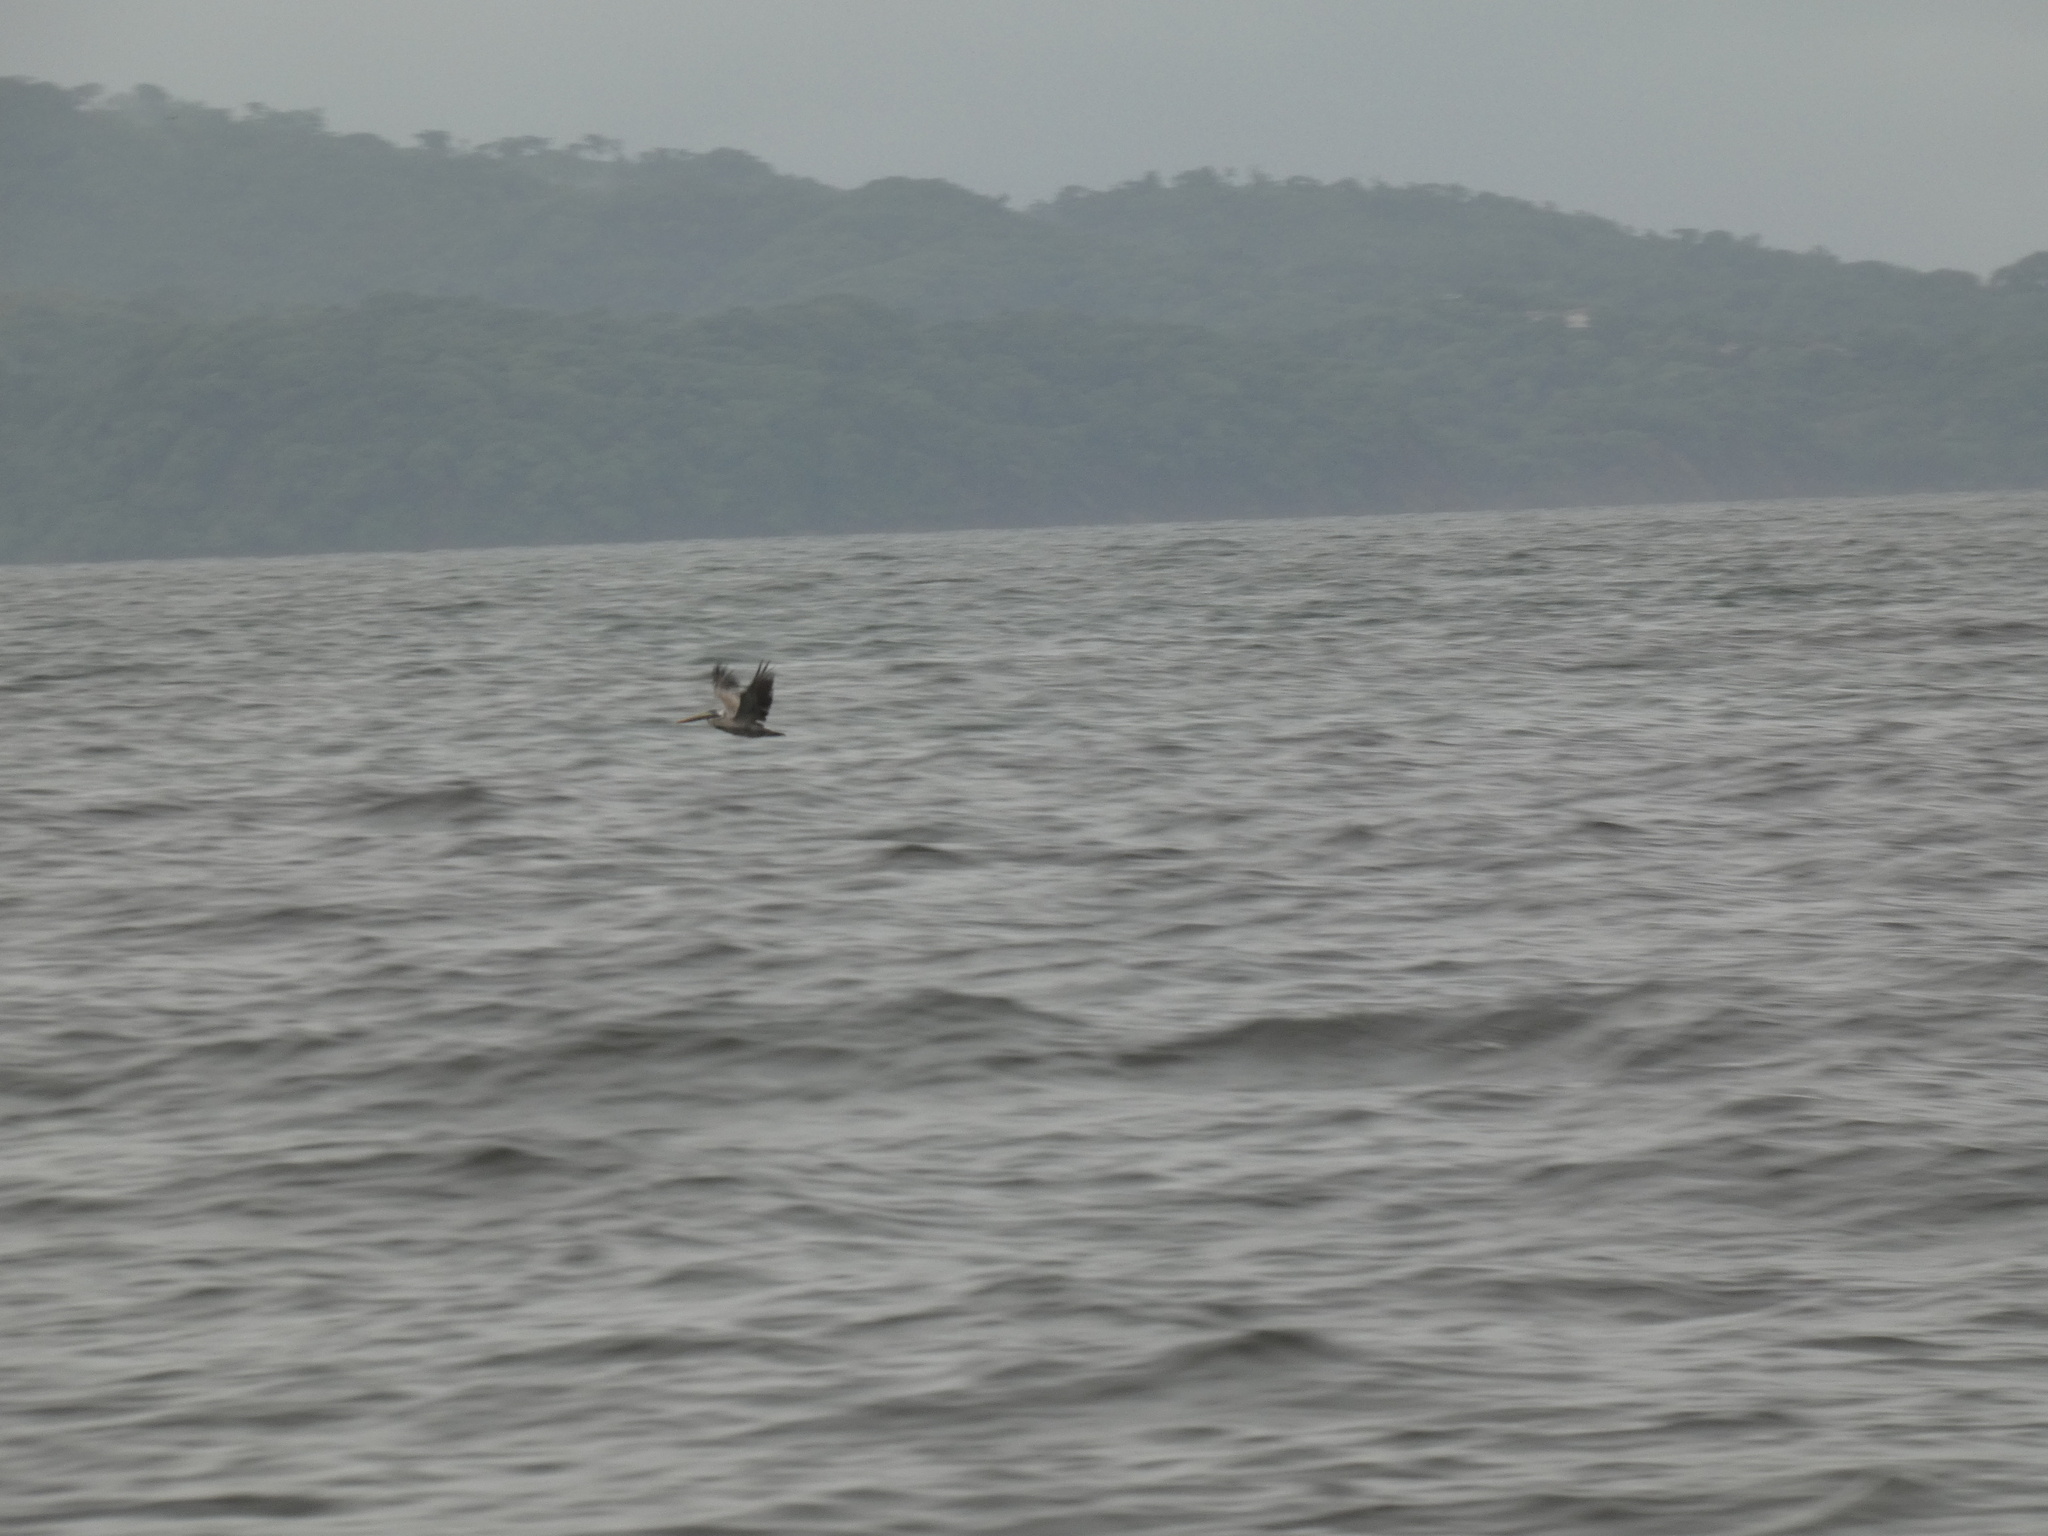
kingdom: Animalia
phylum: Chordata
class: Aves
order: Pelecaniformes
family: Pelecanidae
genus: Pelecanus
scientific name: Pelecanus occidentalis
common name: Brown pelican
